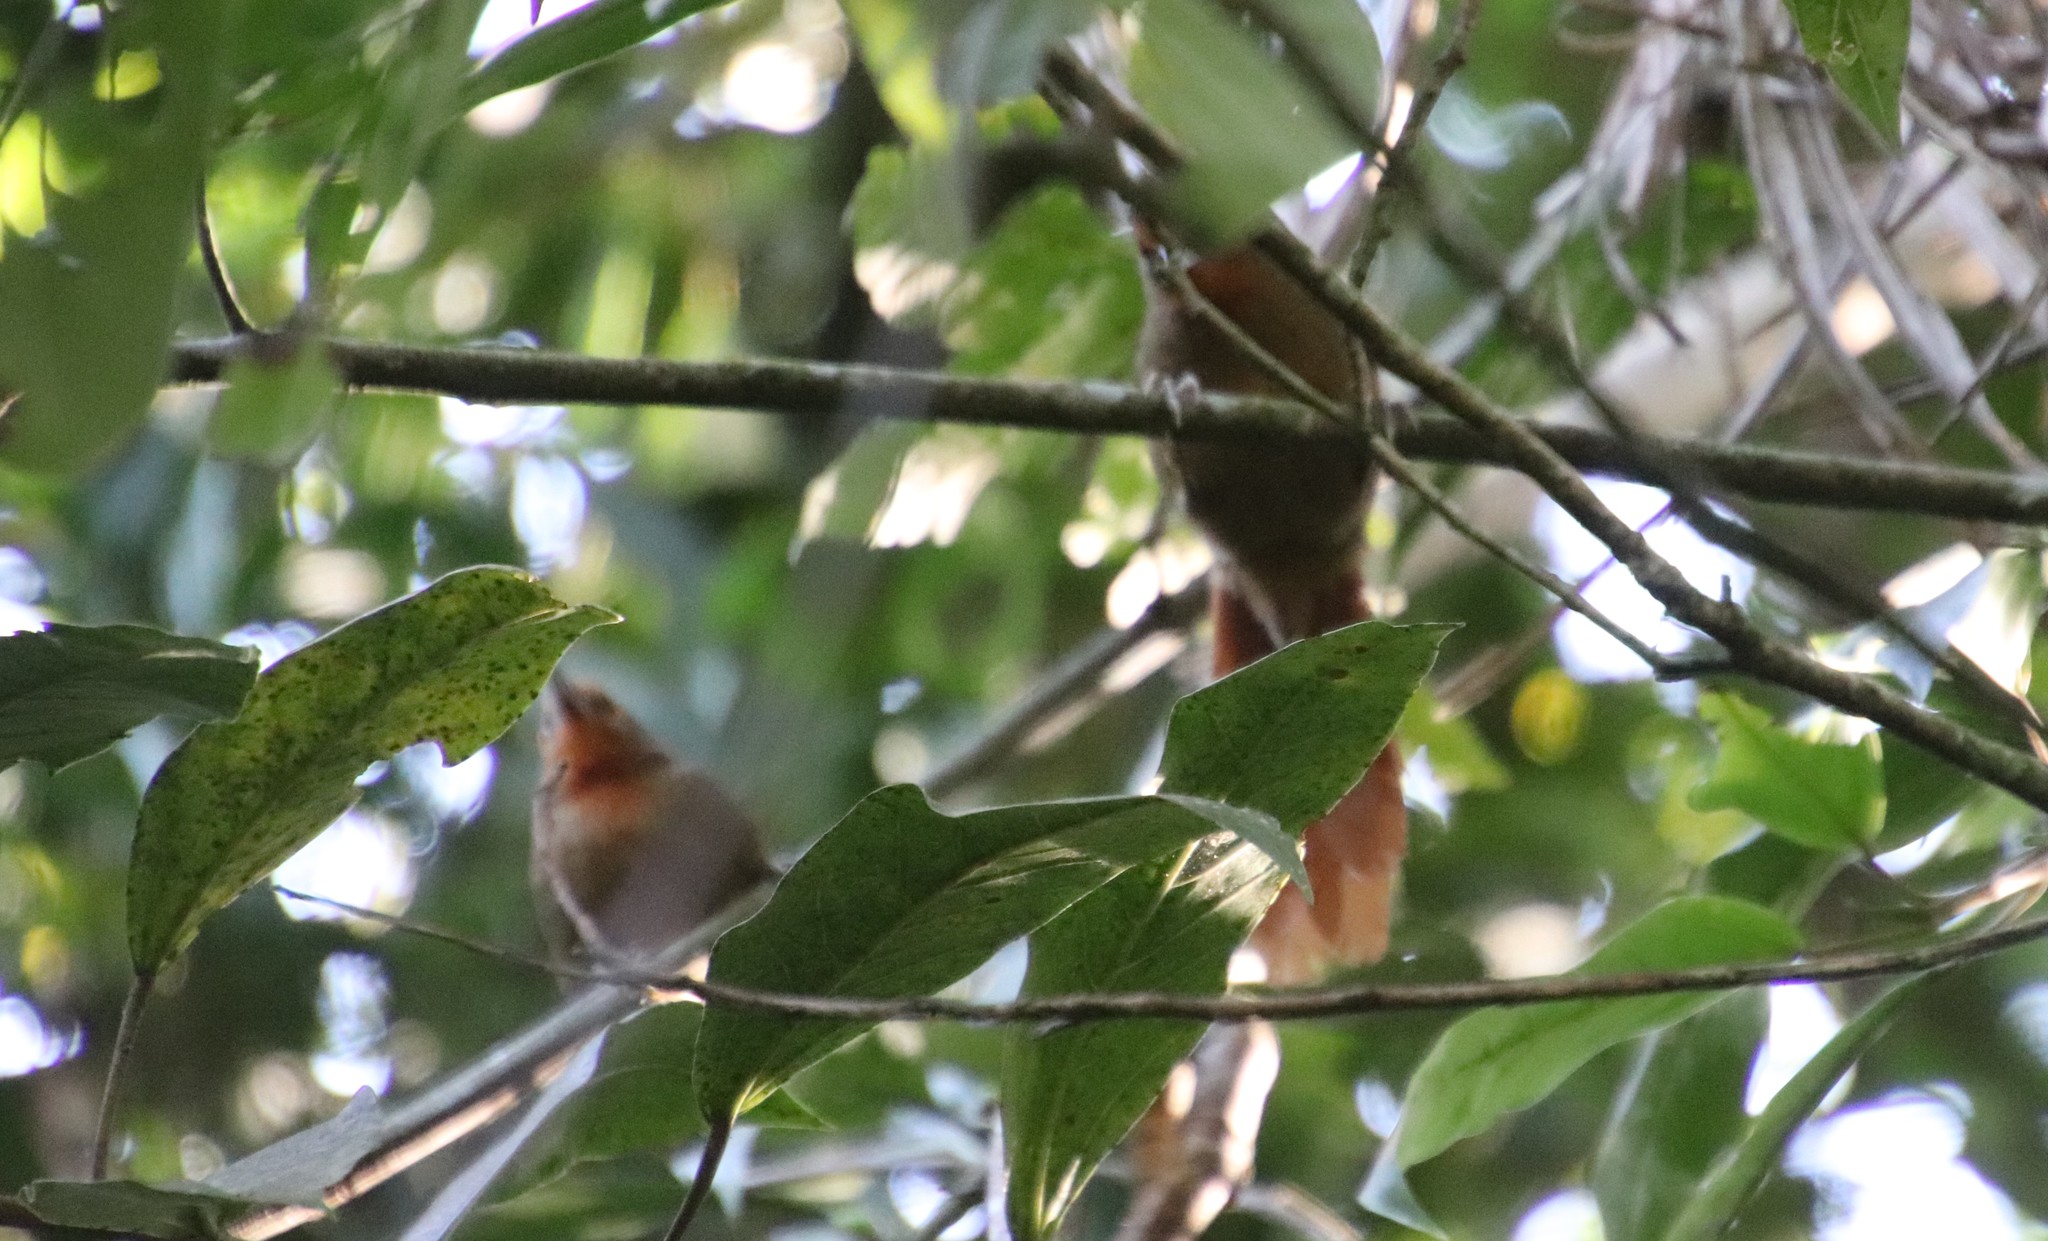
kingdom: Animalia
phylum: Chordata
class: Aves
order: Passeriformes
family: Furnariidae
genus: Phacellodomus
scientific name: Phacellodomus erythrophthalmus
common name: Orange-eyed thornbird
